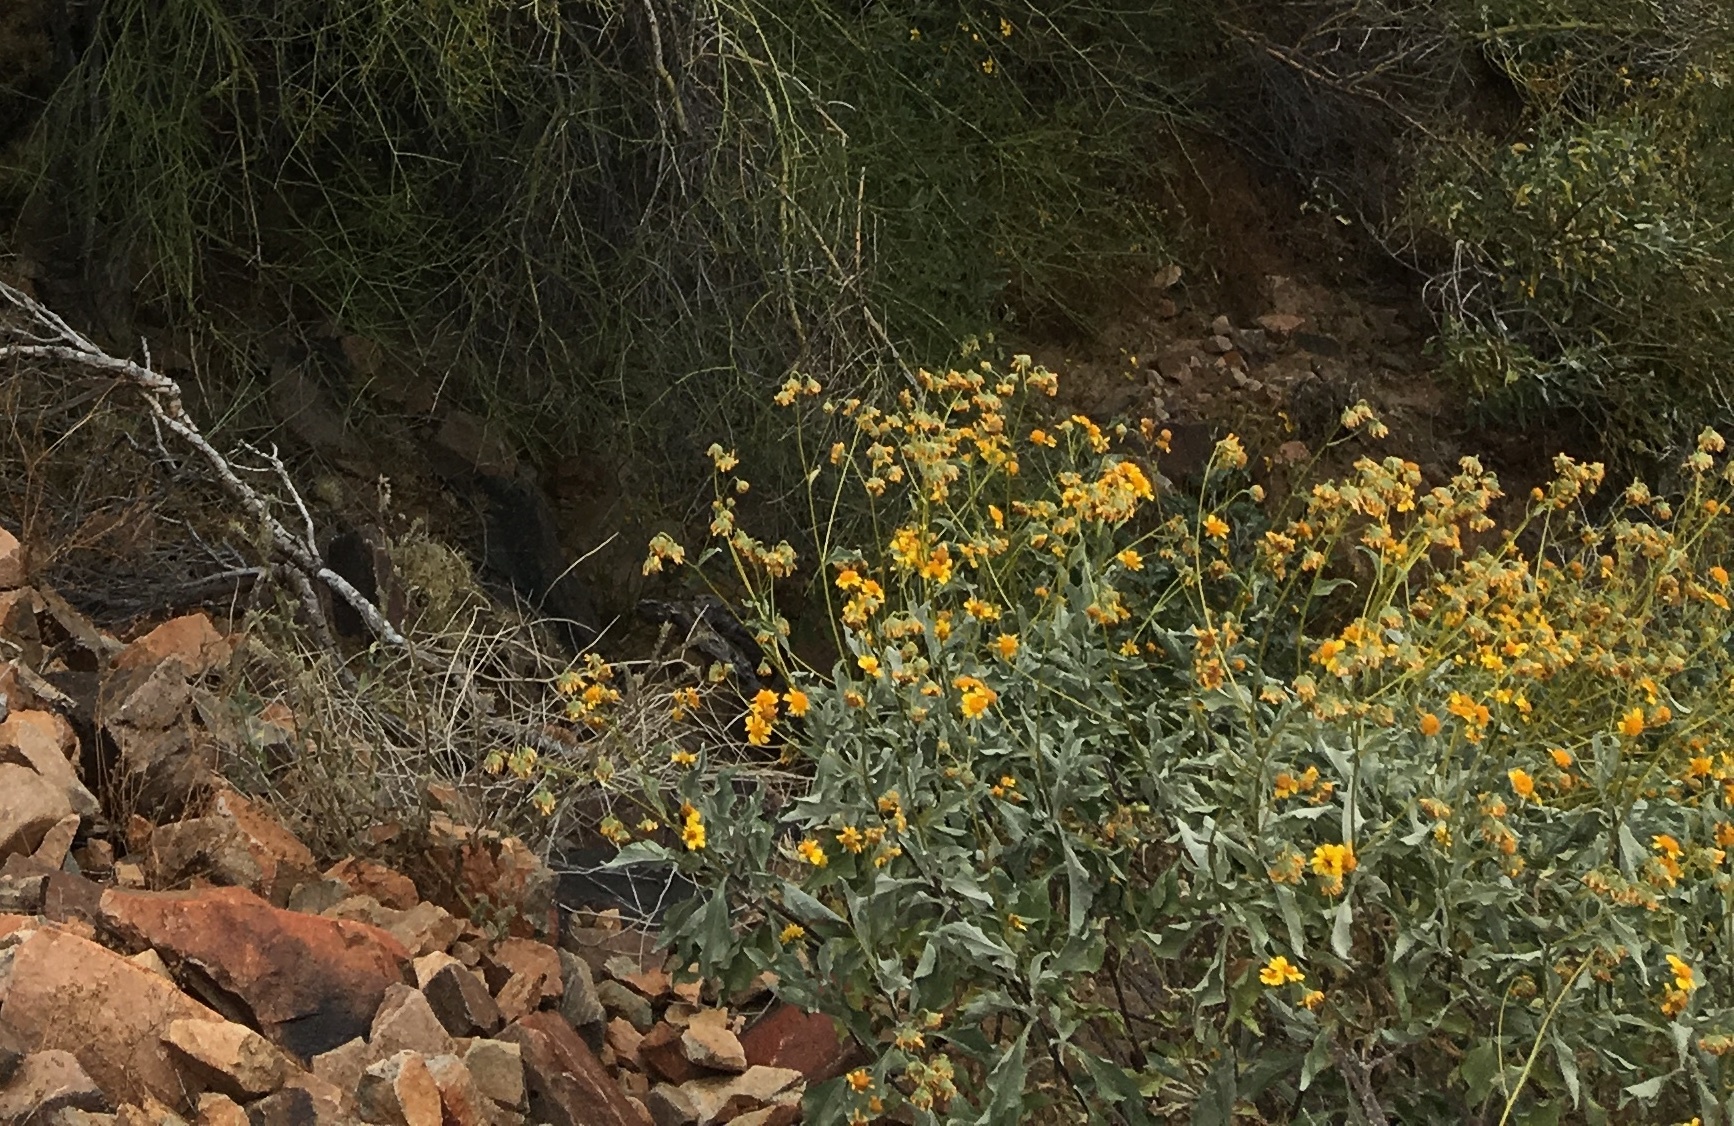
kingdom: Plantae
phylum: Tracheophyta
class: Magnoliopsida
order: Asterales
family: Asteraceae
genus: Verbesina
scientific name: Verbesina encelioides
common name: Golden crownbeard
